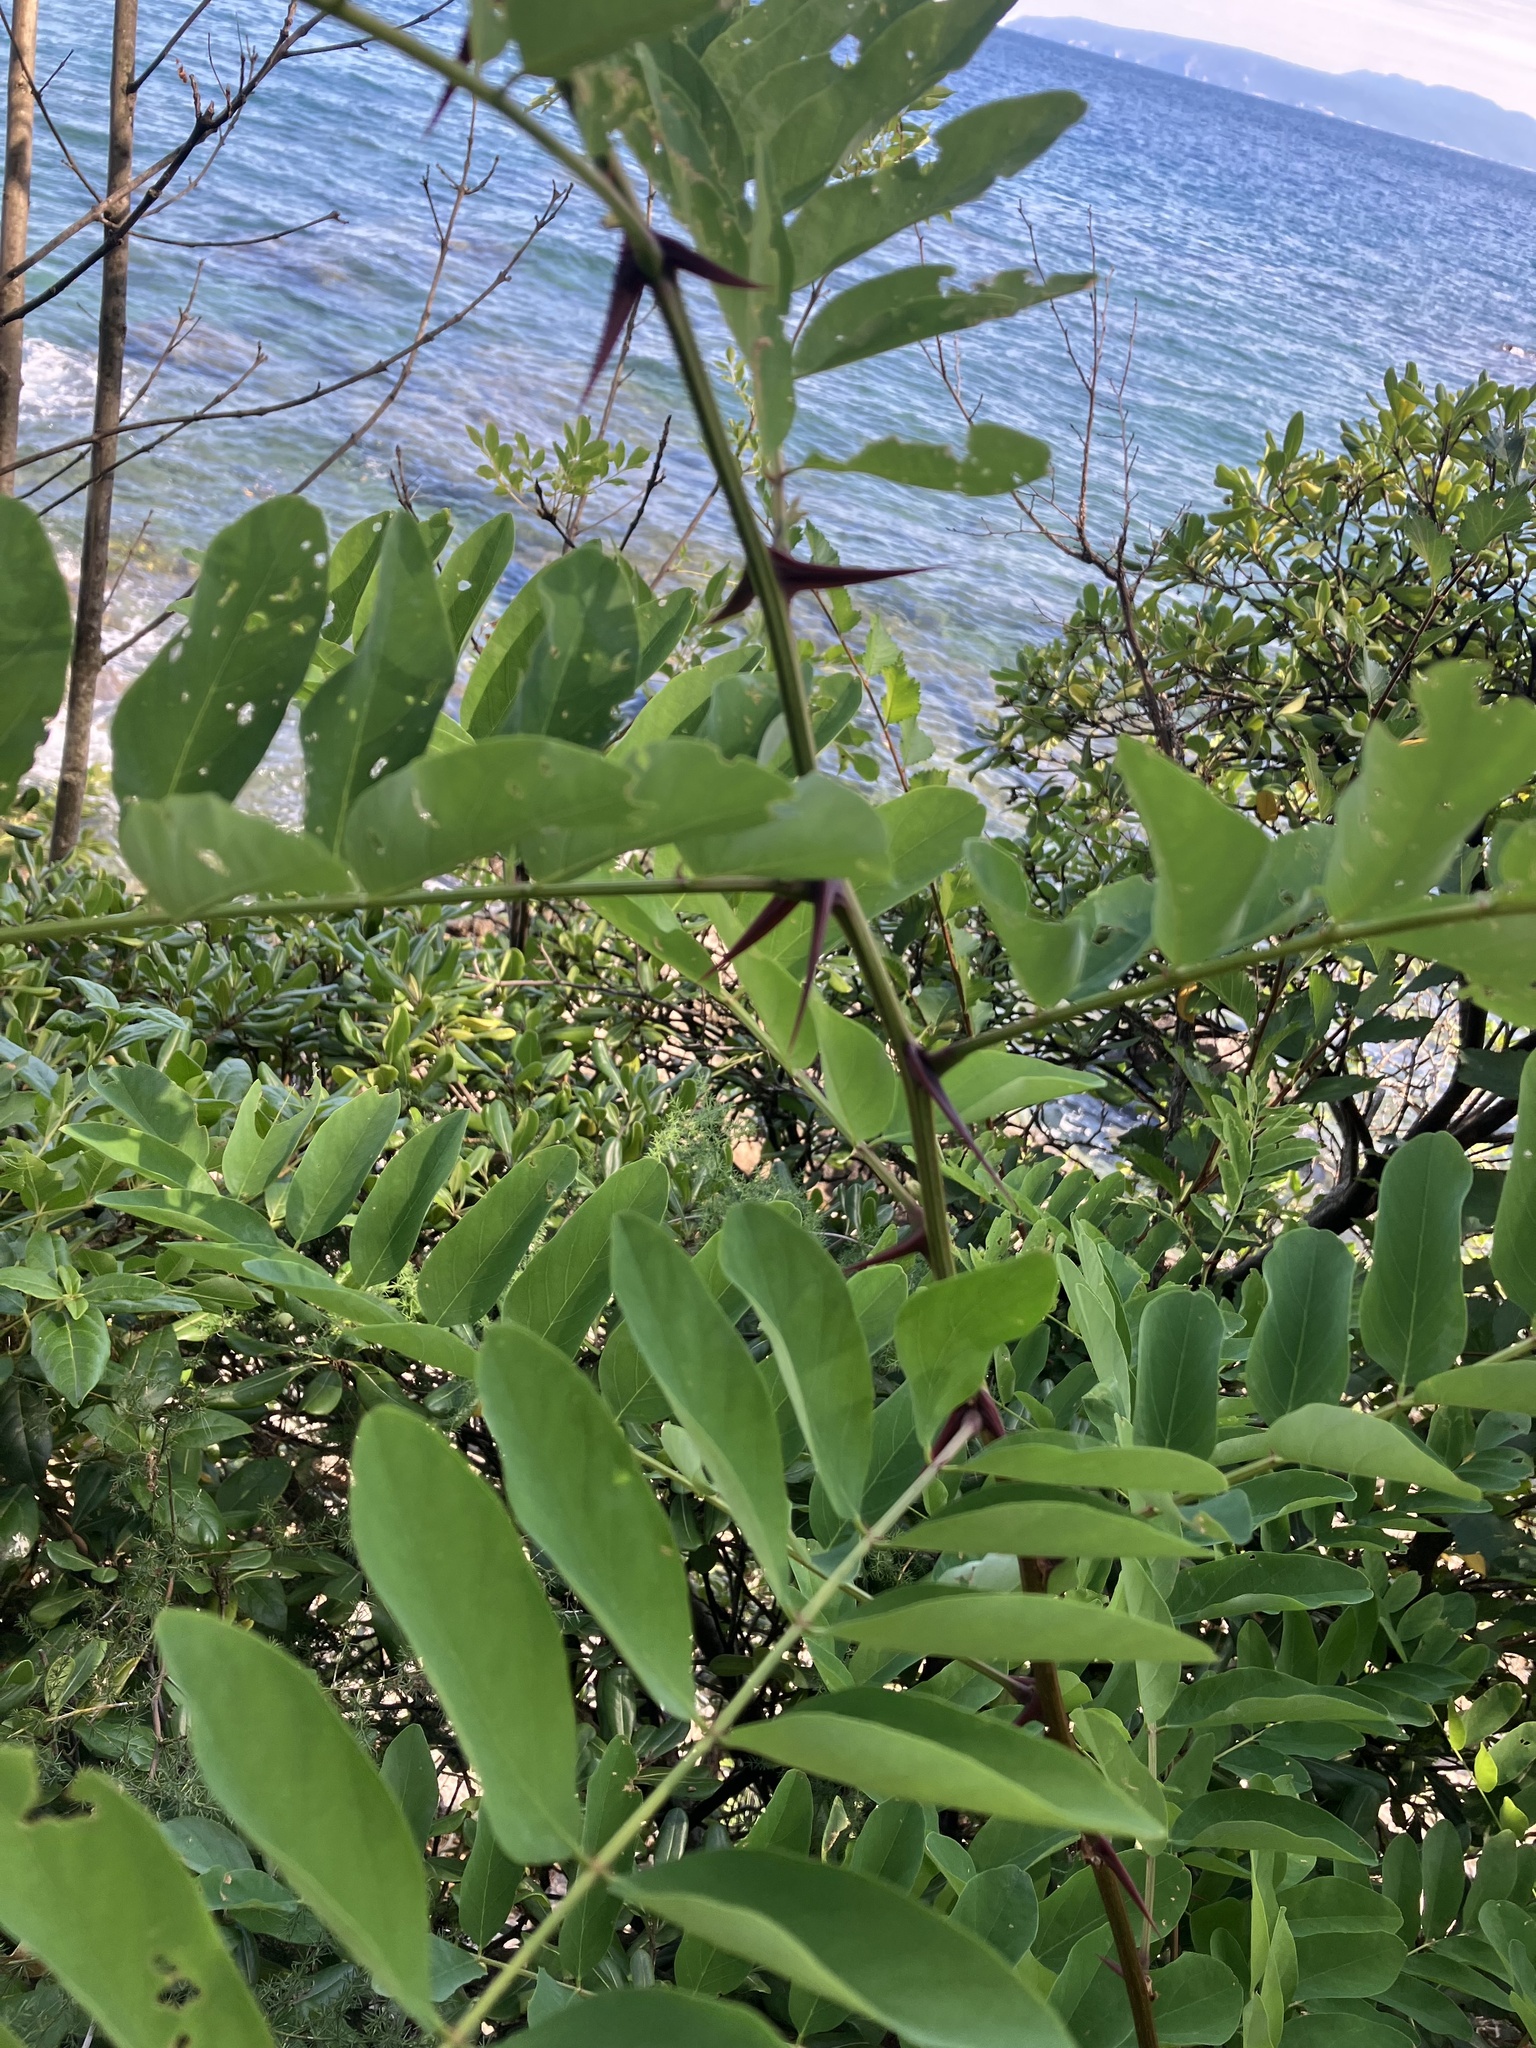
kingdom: Plantae
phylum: Tracheophyta
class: Magnoliopsida
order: Fabales
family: Fabaceae
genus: Robinia
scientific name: Robinia pseudoacacia
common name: Black locust
